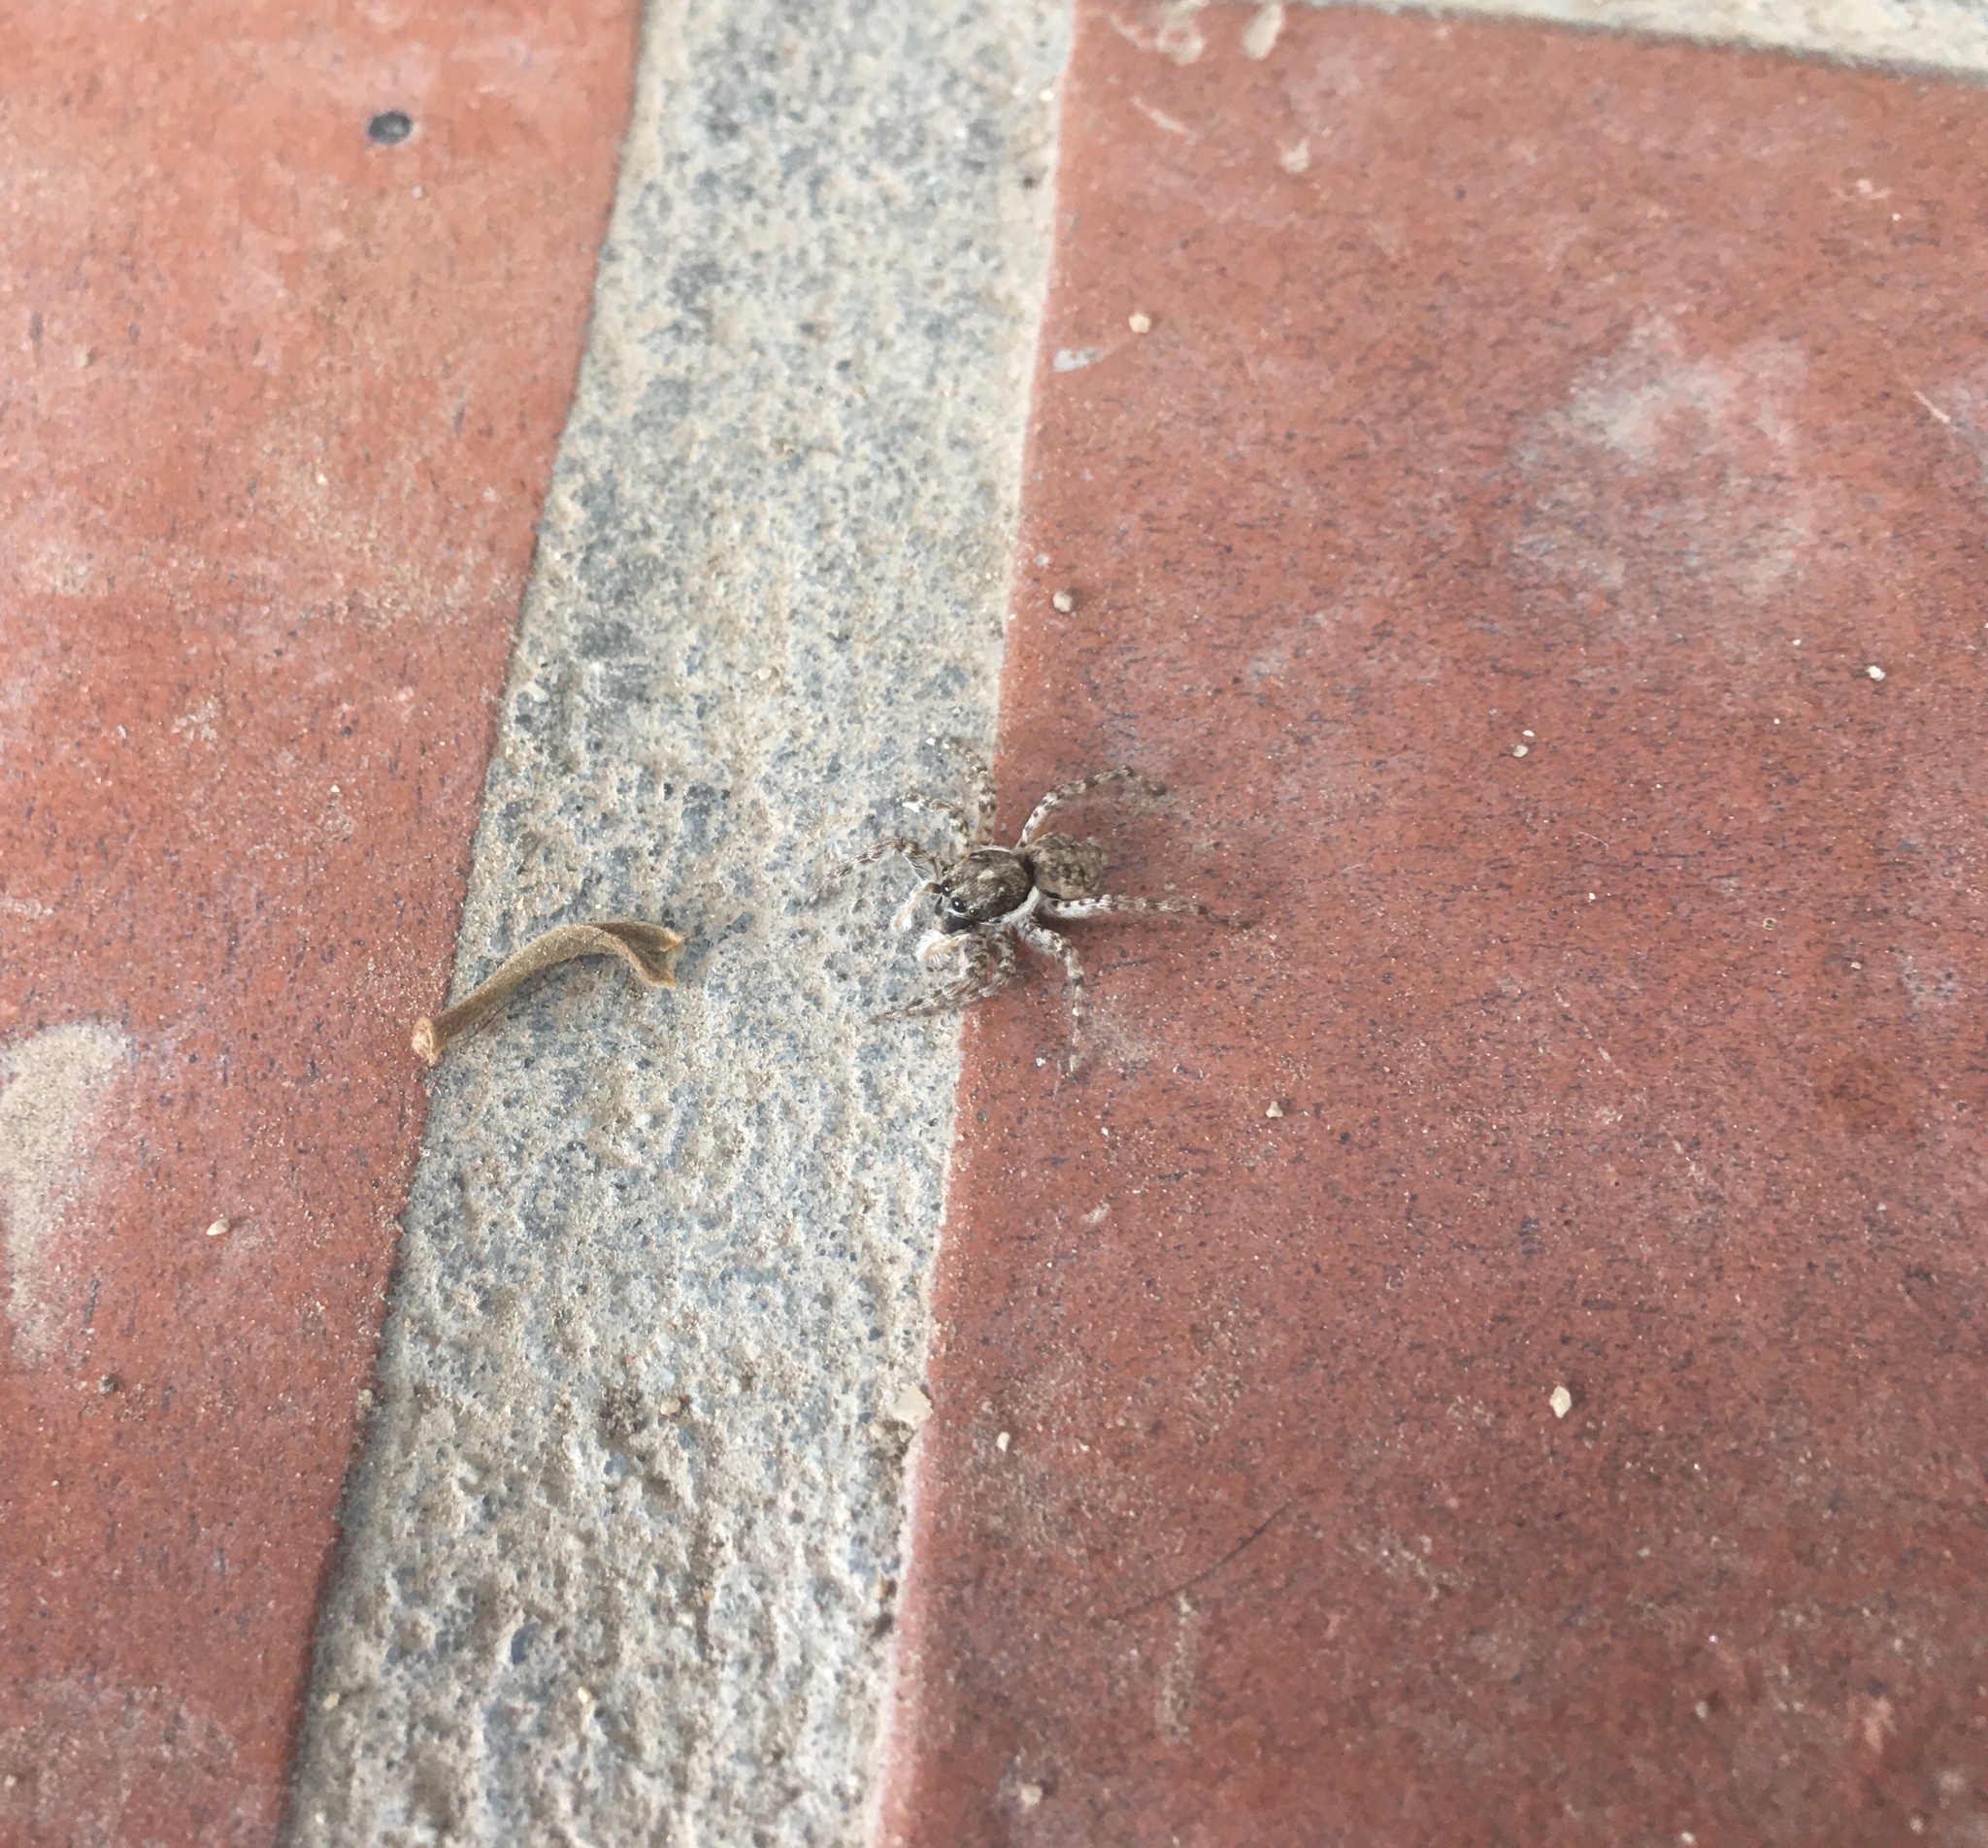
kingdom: Animalia
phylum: Arthropoda
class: Arachnida
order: Araneae
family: Salticidae
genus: Menemerus
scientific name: Menemerus semilimbatus
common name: Jumping spider
